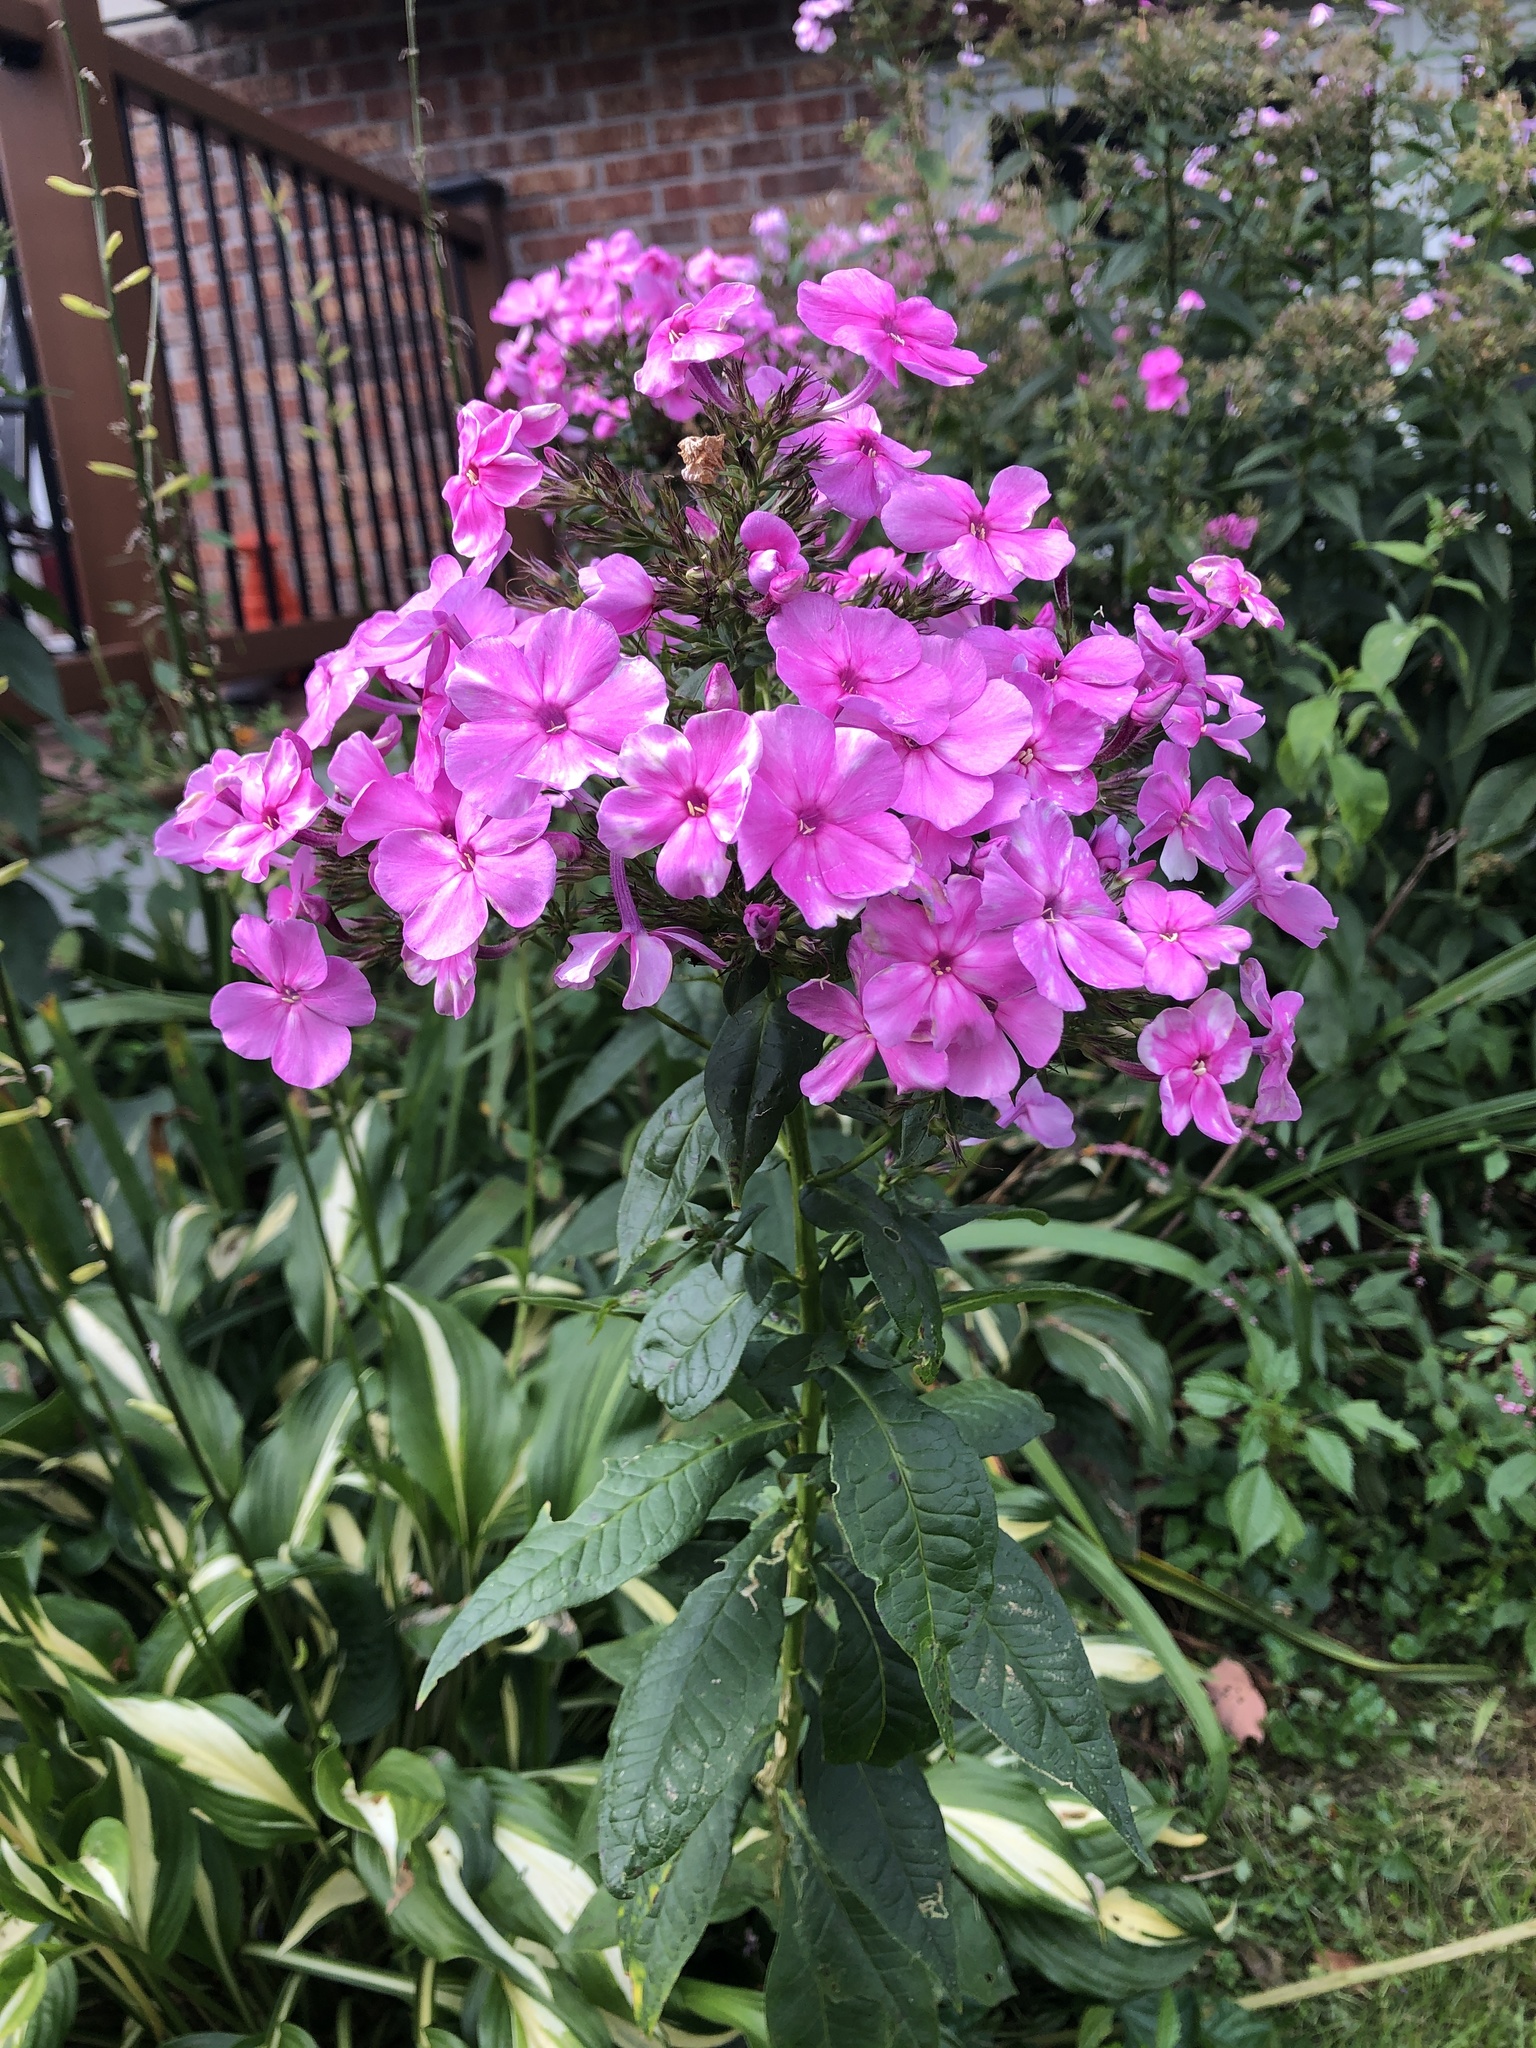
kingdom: Plantae
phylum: Tracheophyta
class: Magnoliopsida
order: Ericales
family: Polemoniaceae
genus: Phlox
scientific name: Phlox paniculata
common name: Fall phlox
